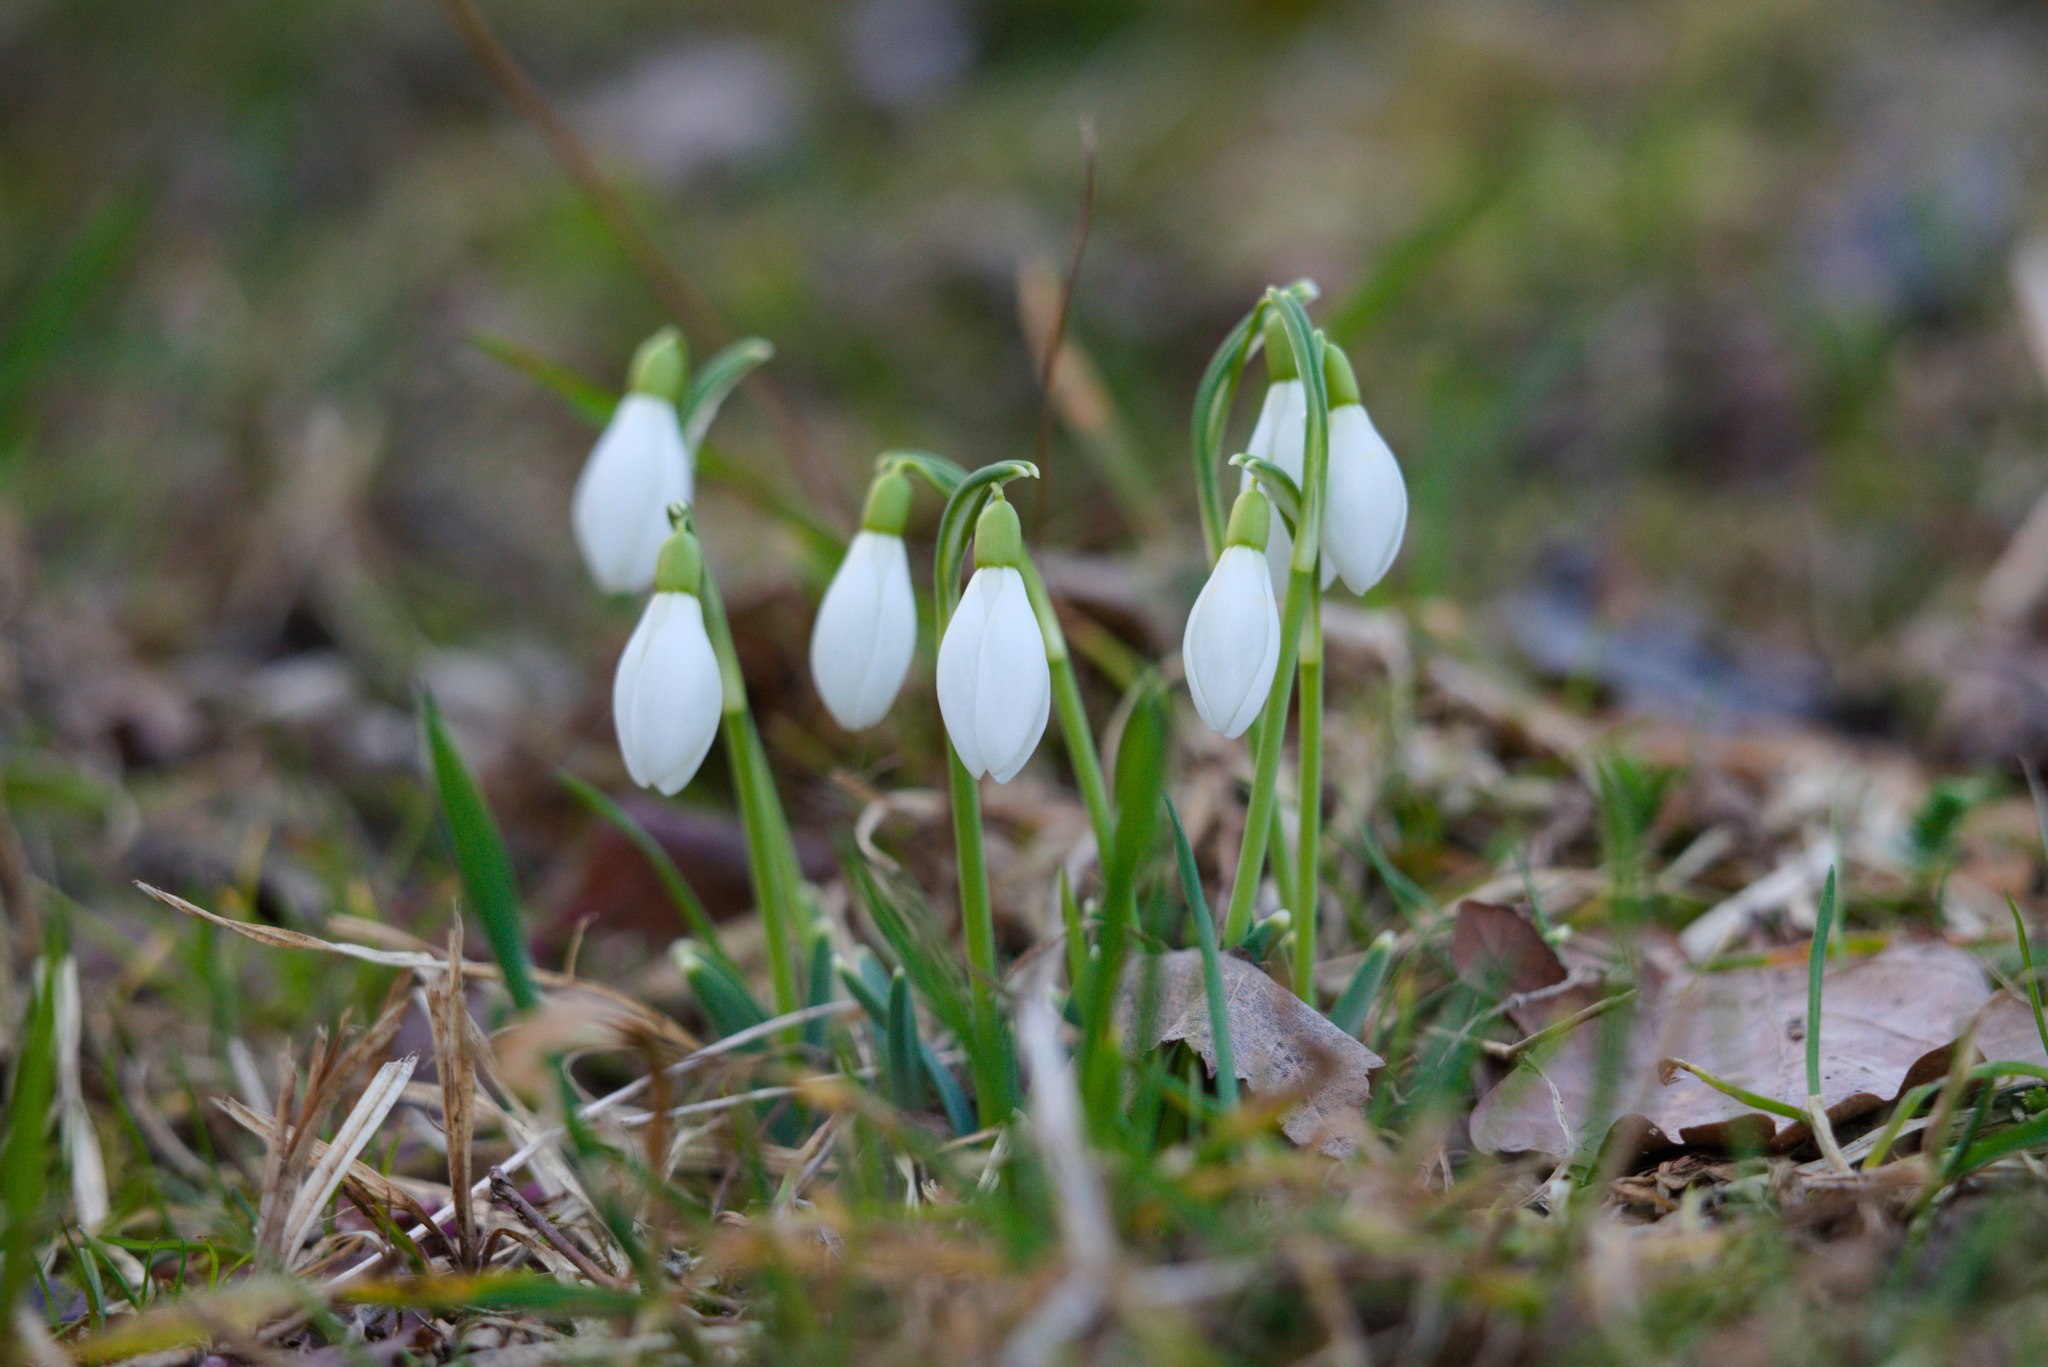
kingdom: Plantae
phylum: Tracheophyta
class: Liliopsida
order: Asparagales
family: Amaryllidaceae
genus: Galanthus
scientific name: Galanthus nivalis
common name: Snowdrop
